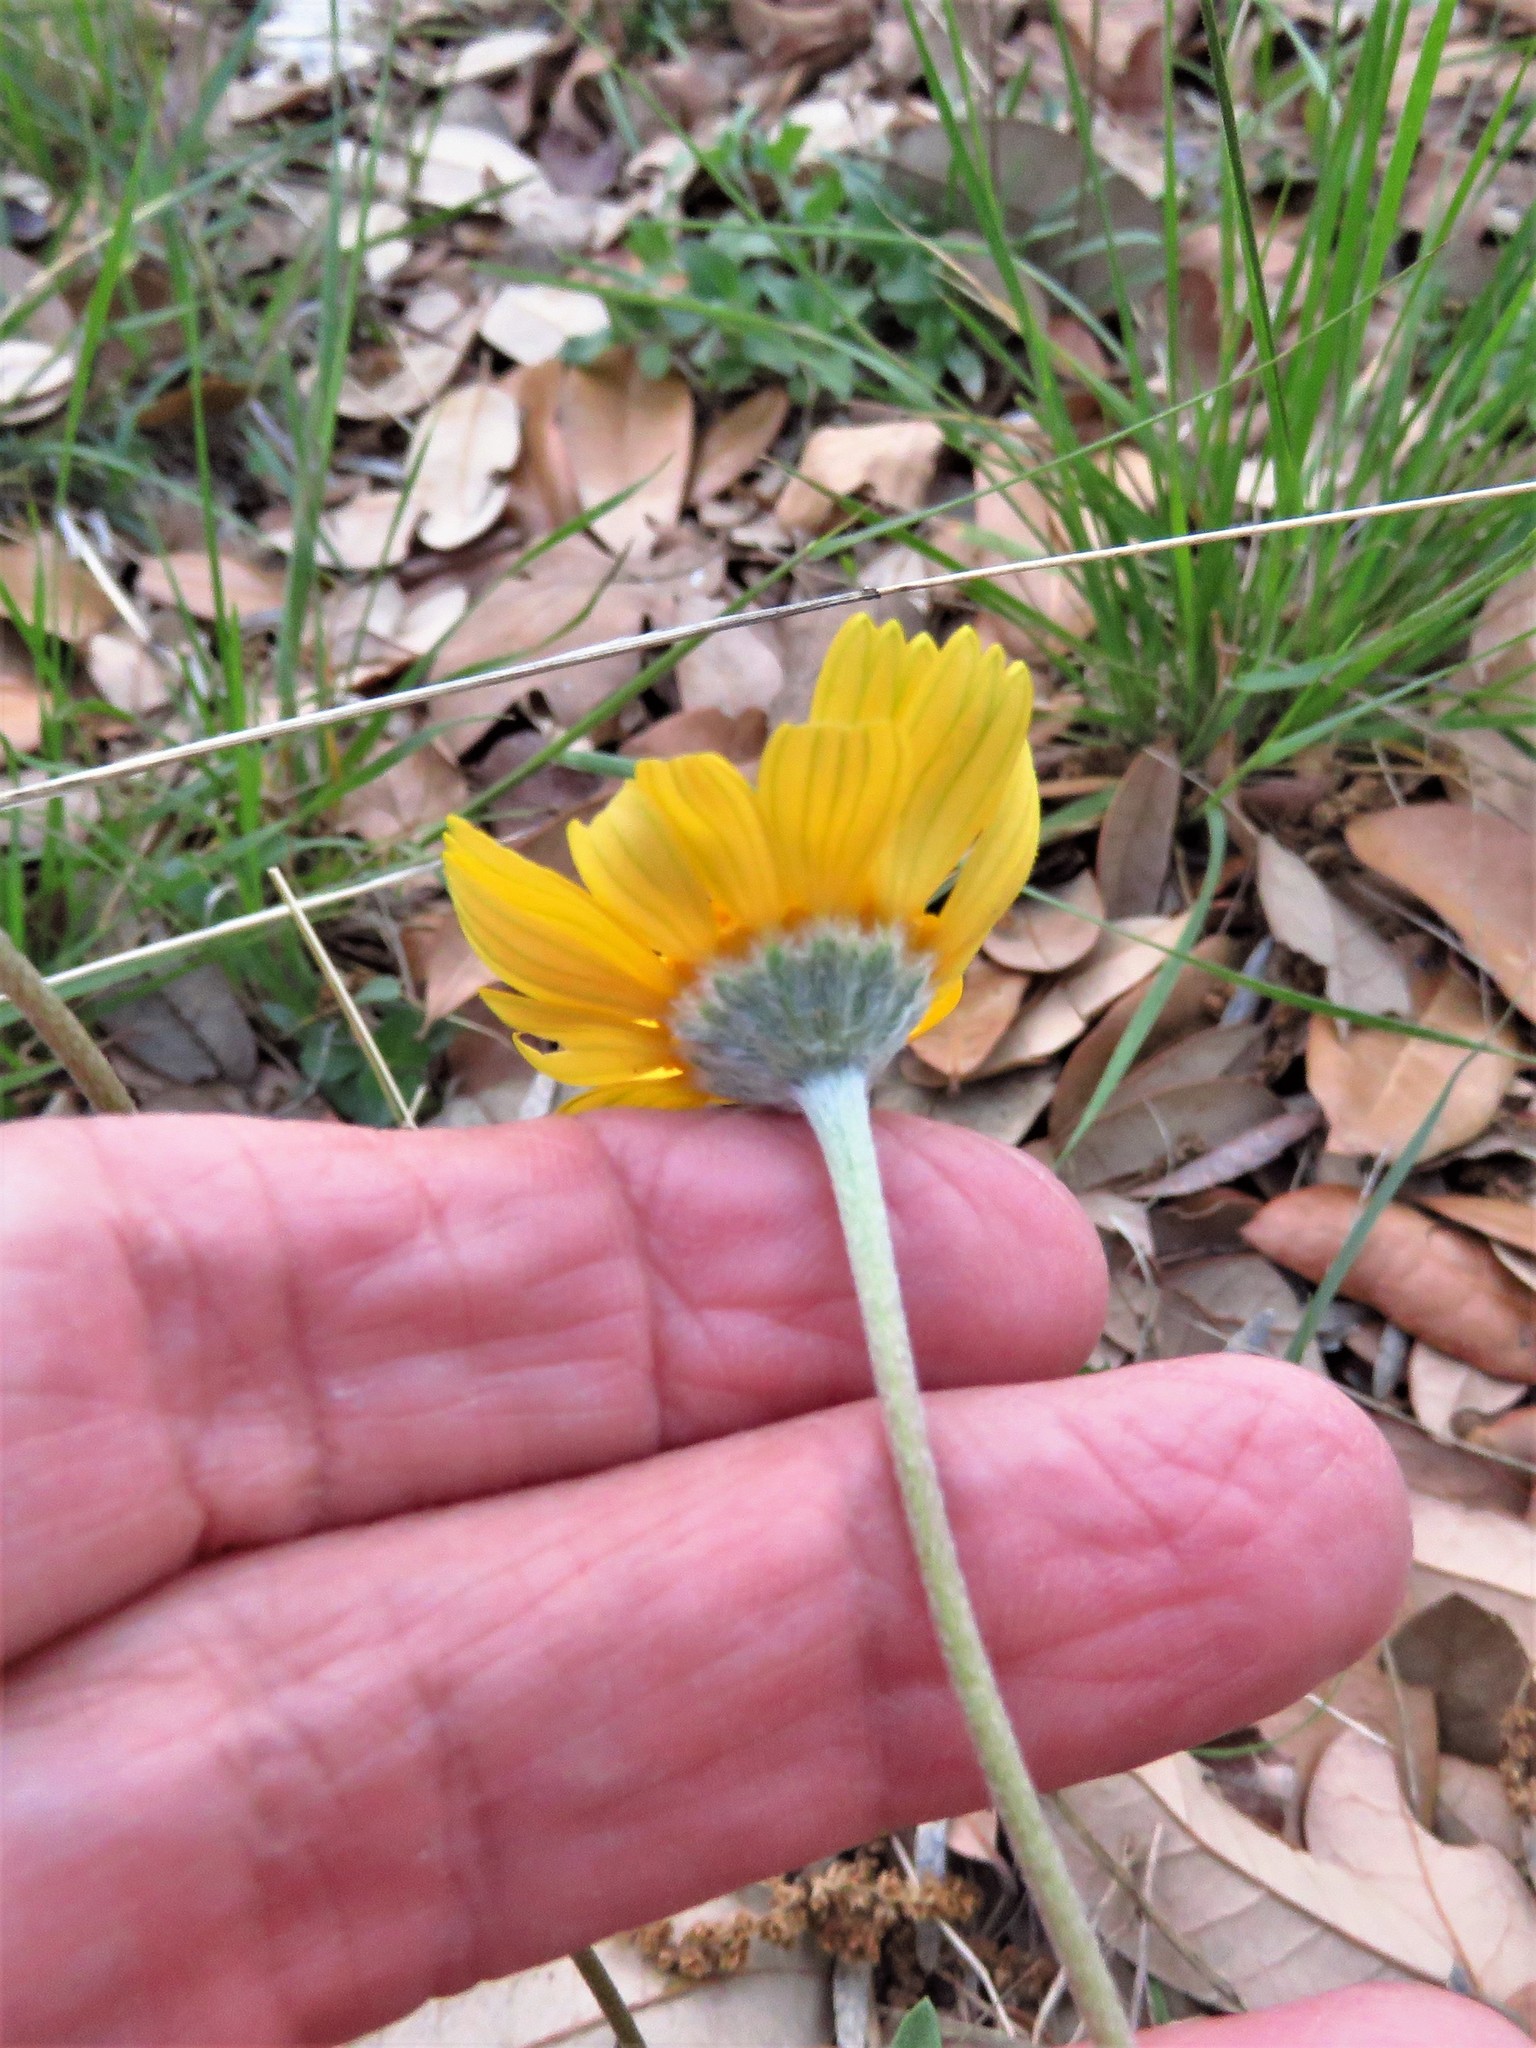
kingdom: Plantae
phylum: Tracheophyta
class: Magnoliopsida
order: Asterales
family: Asteraceae
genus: Tetraneuris
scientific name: Tetraneuris scaposa
